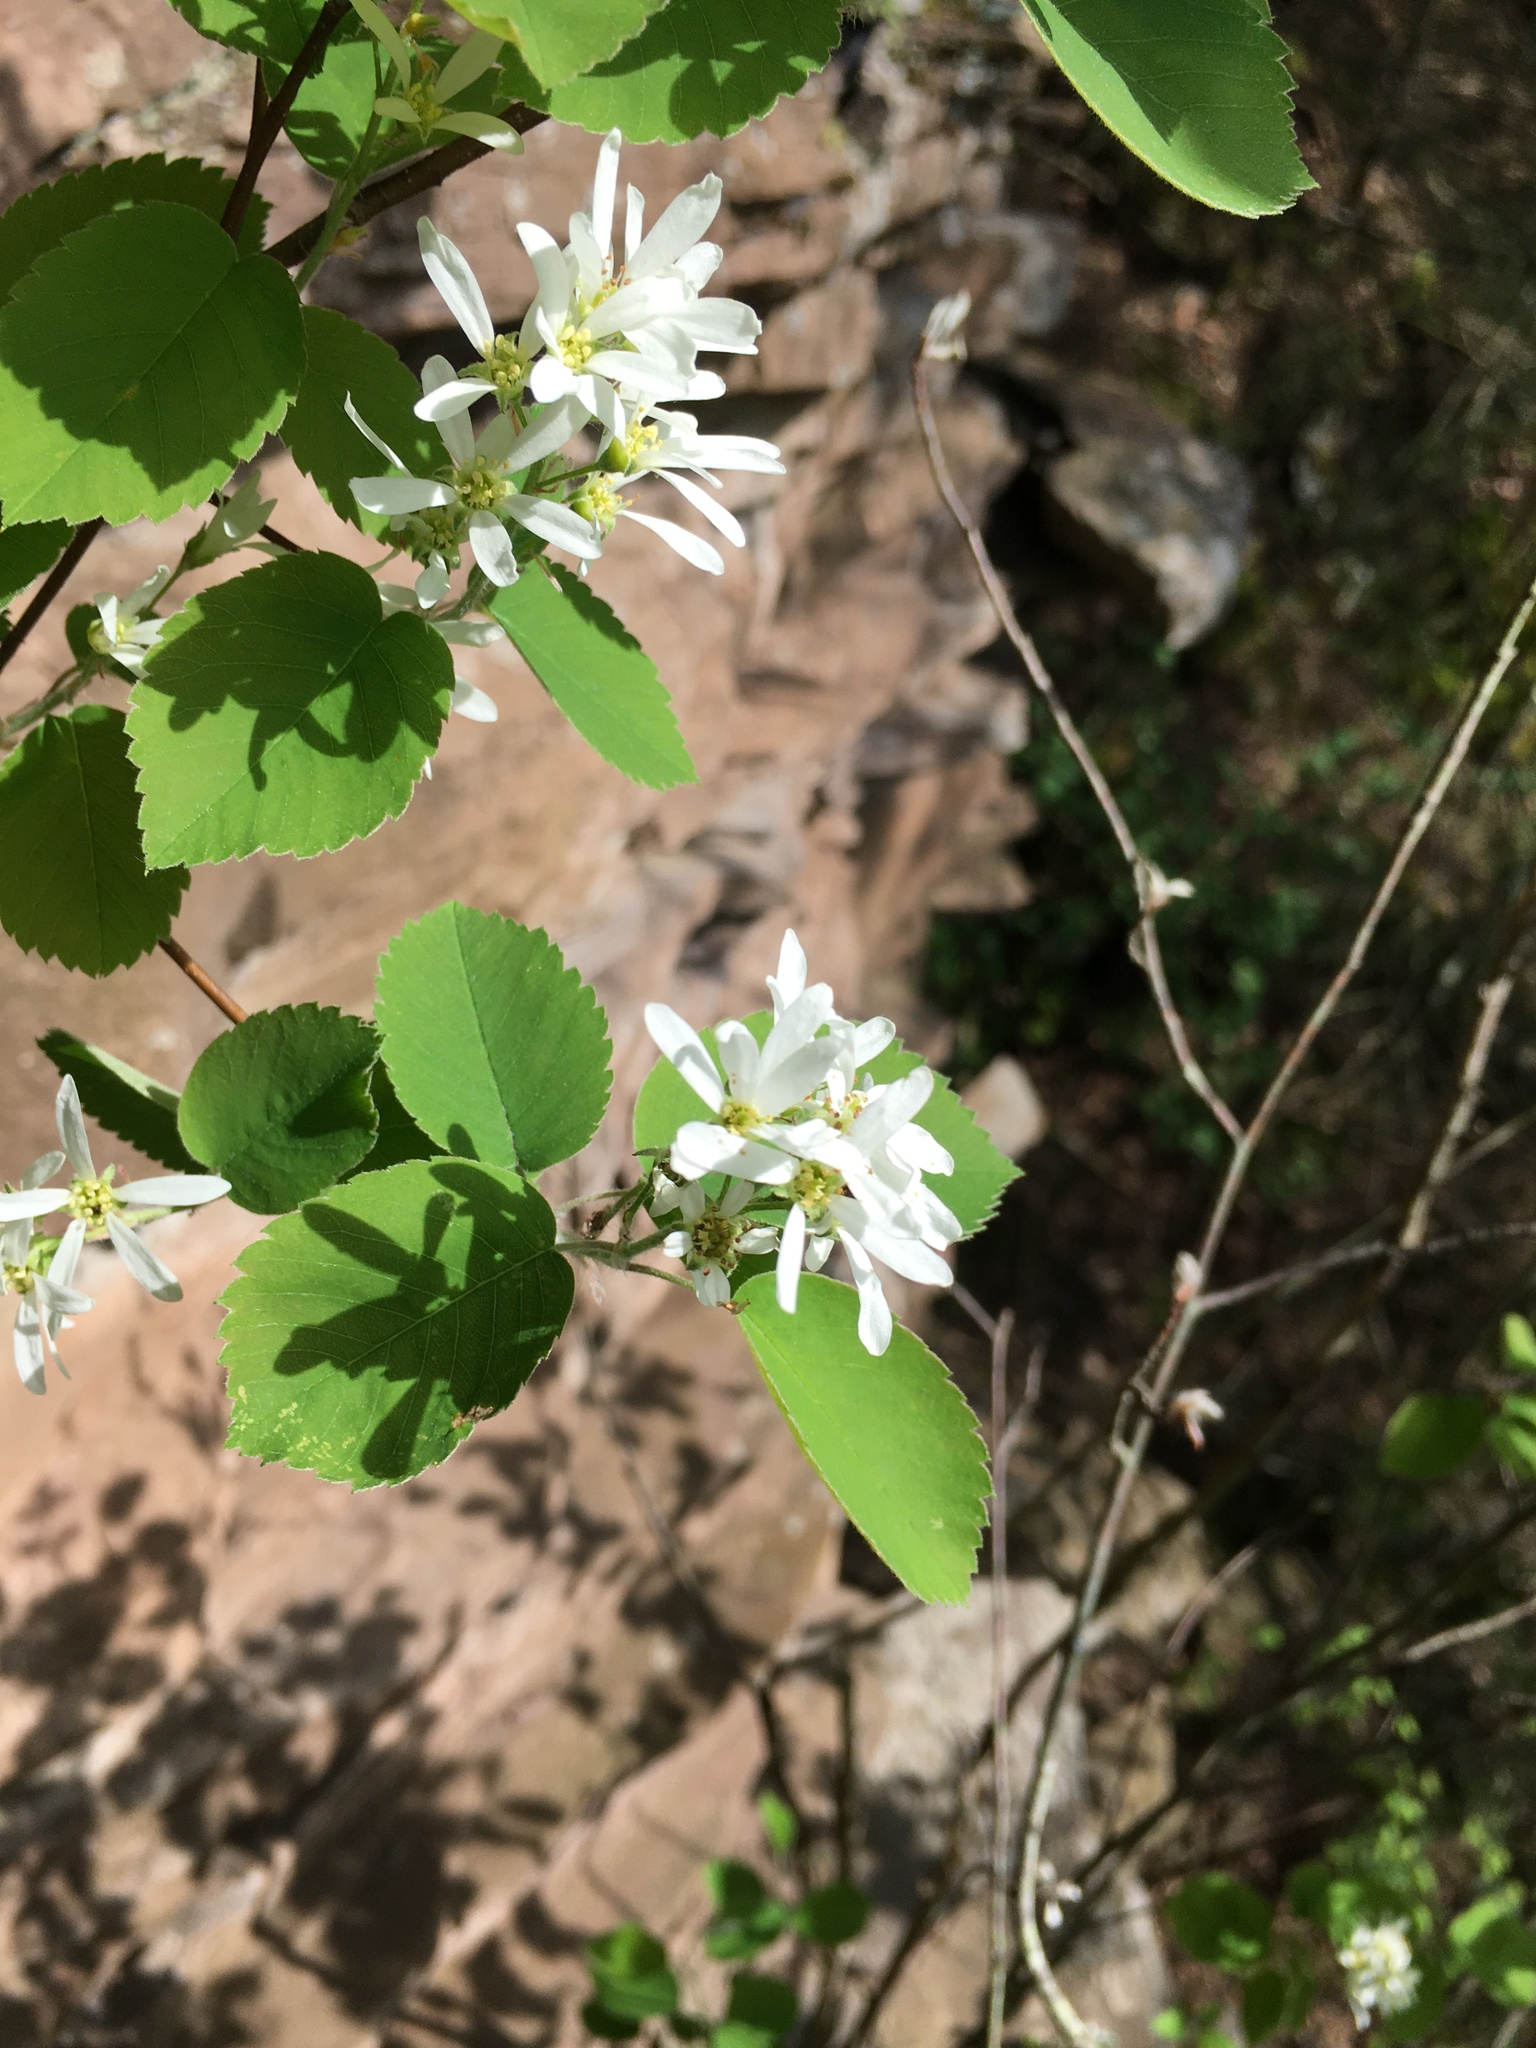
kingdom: Plantae
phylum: Tracheophyta
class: Magnoliopsida
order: Rosales
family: Rosaceae
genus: Amelanchier
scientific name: Amelanchier sanguinea
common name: Huron serviceberry
